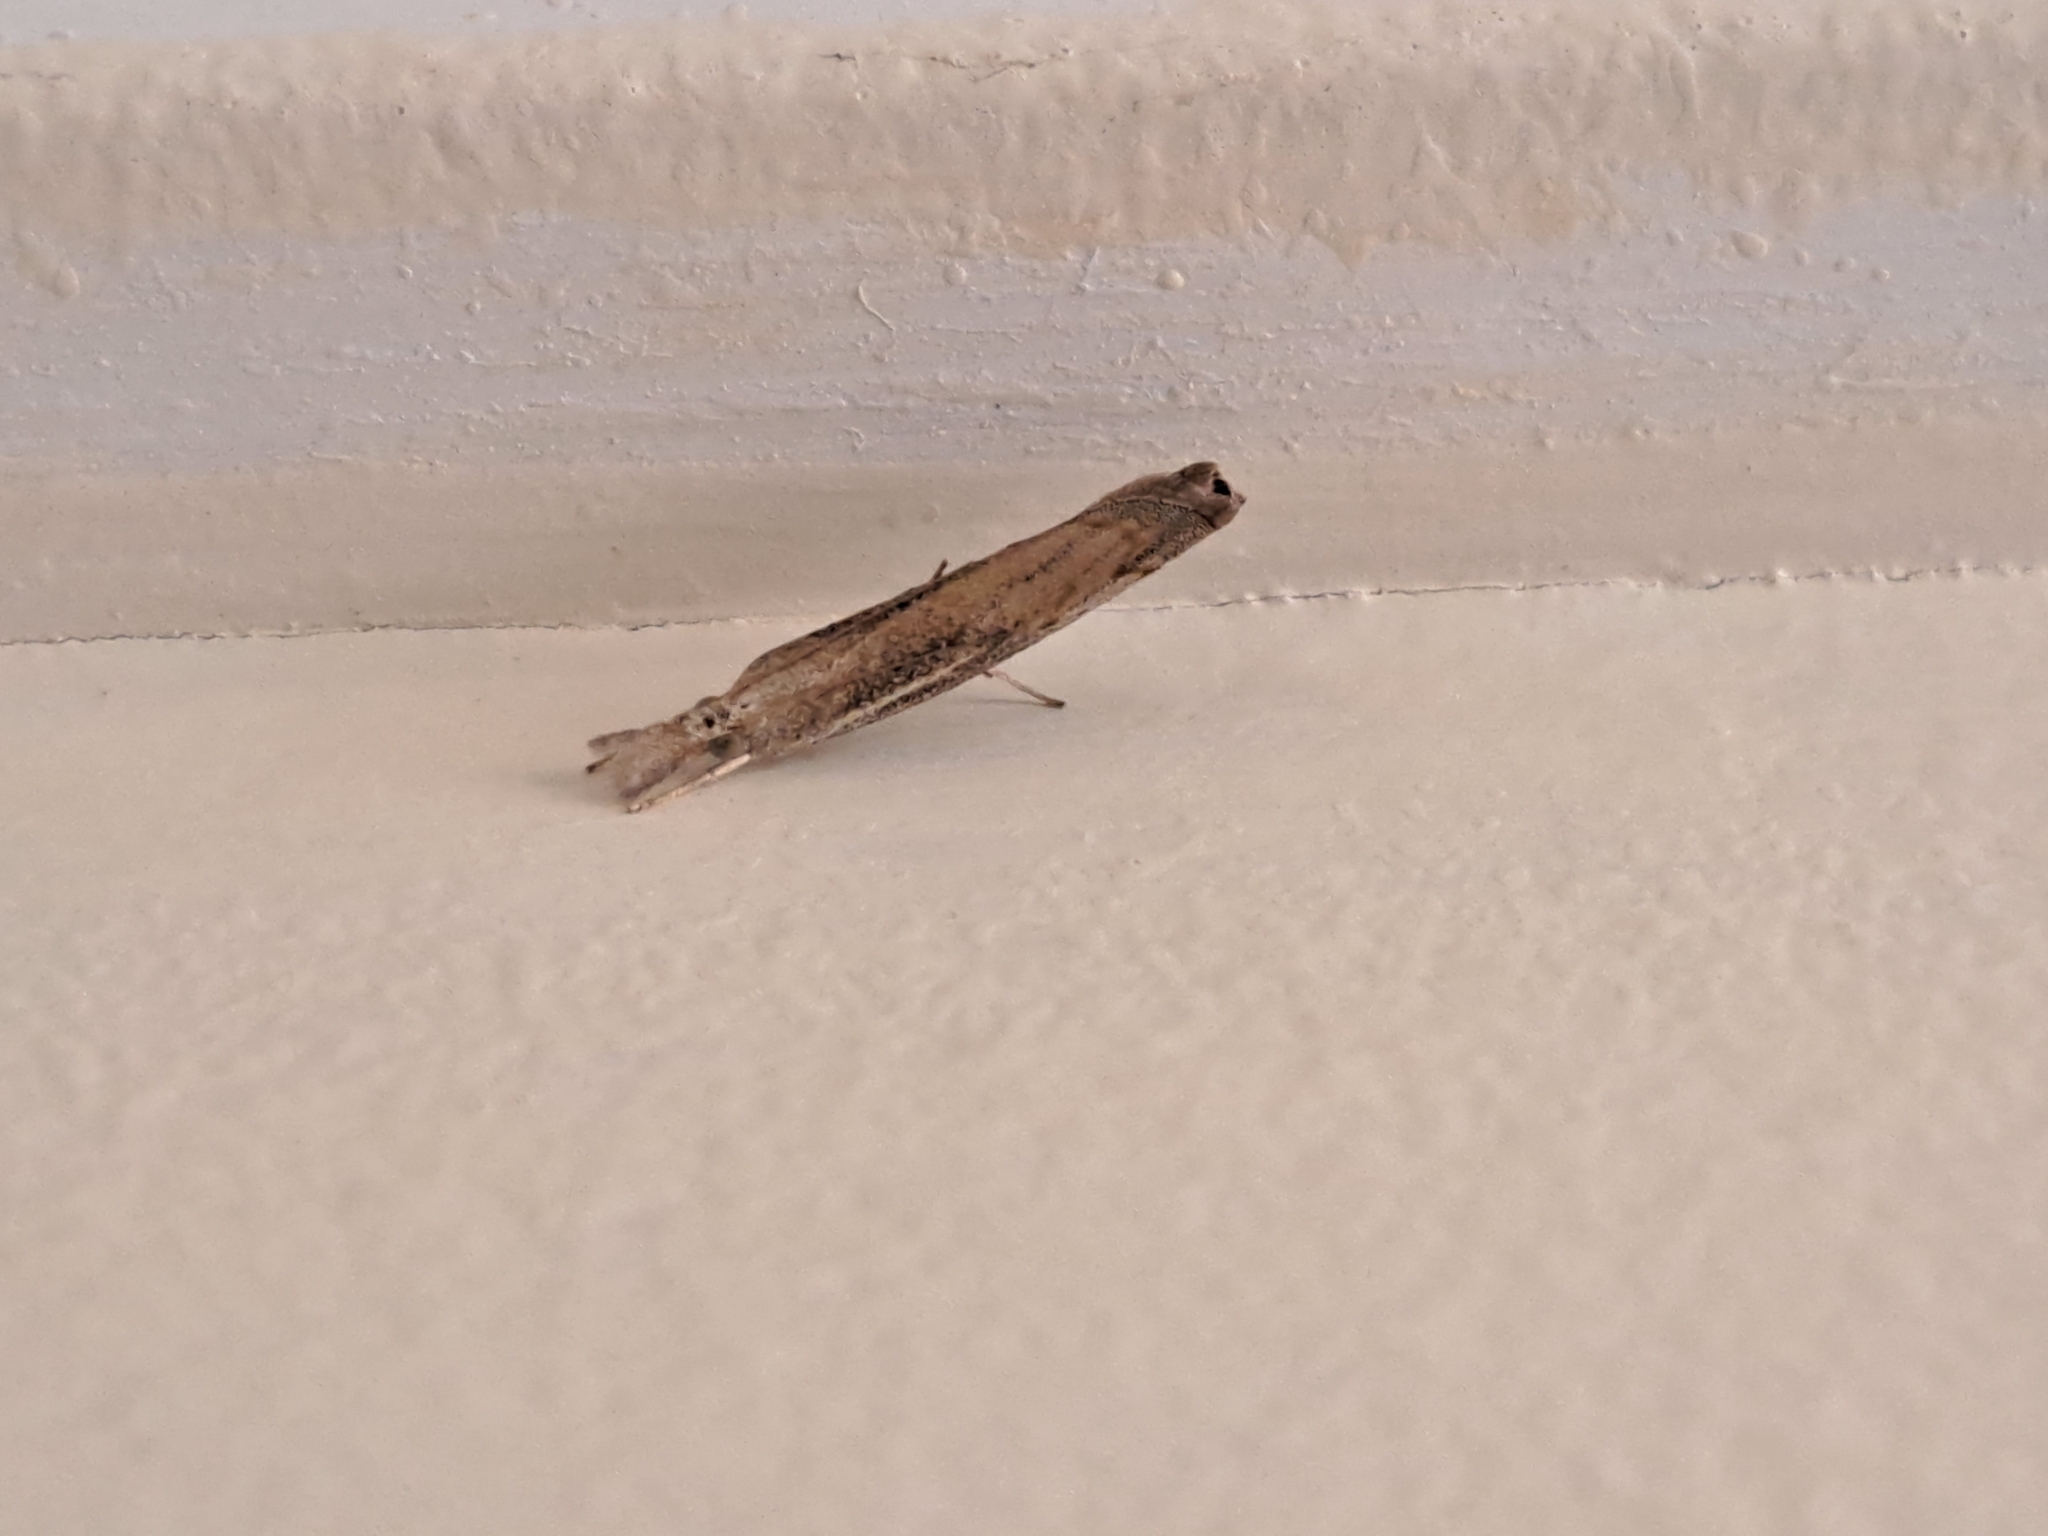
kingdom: Animalia
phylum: Arthropoda
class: Insecta
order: Lepidoptera
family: Crambidae
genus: Culladia
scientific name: Culladia cuneiferellus
